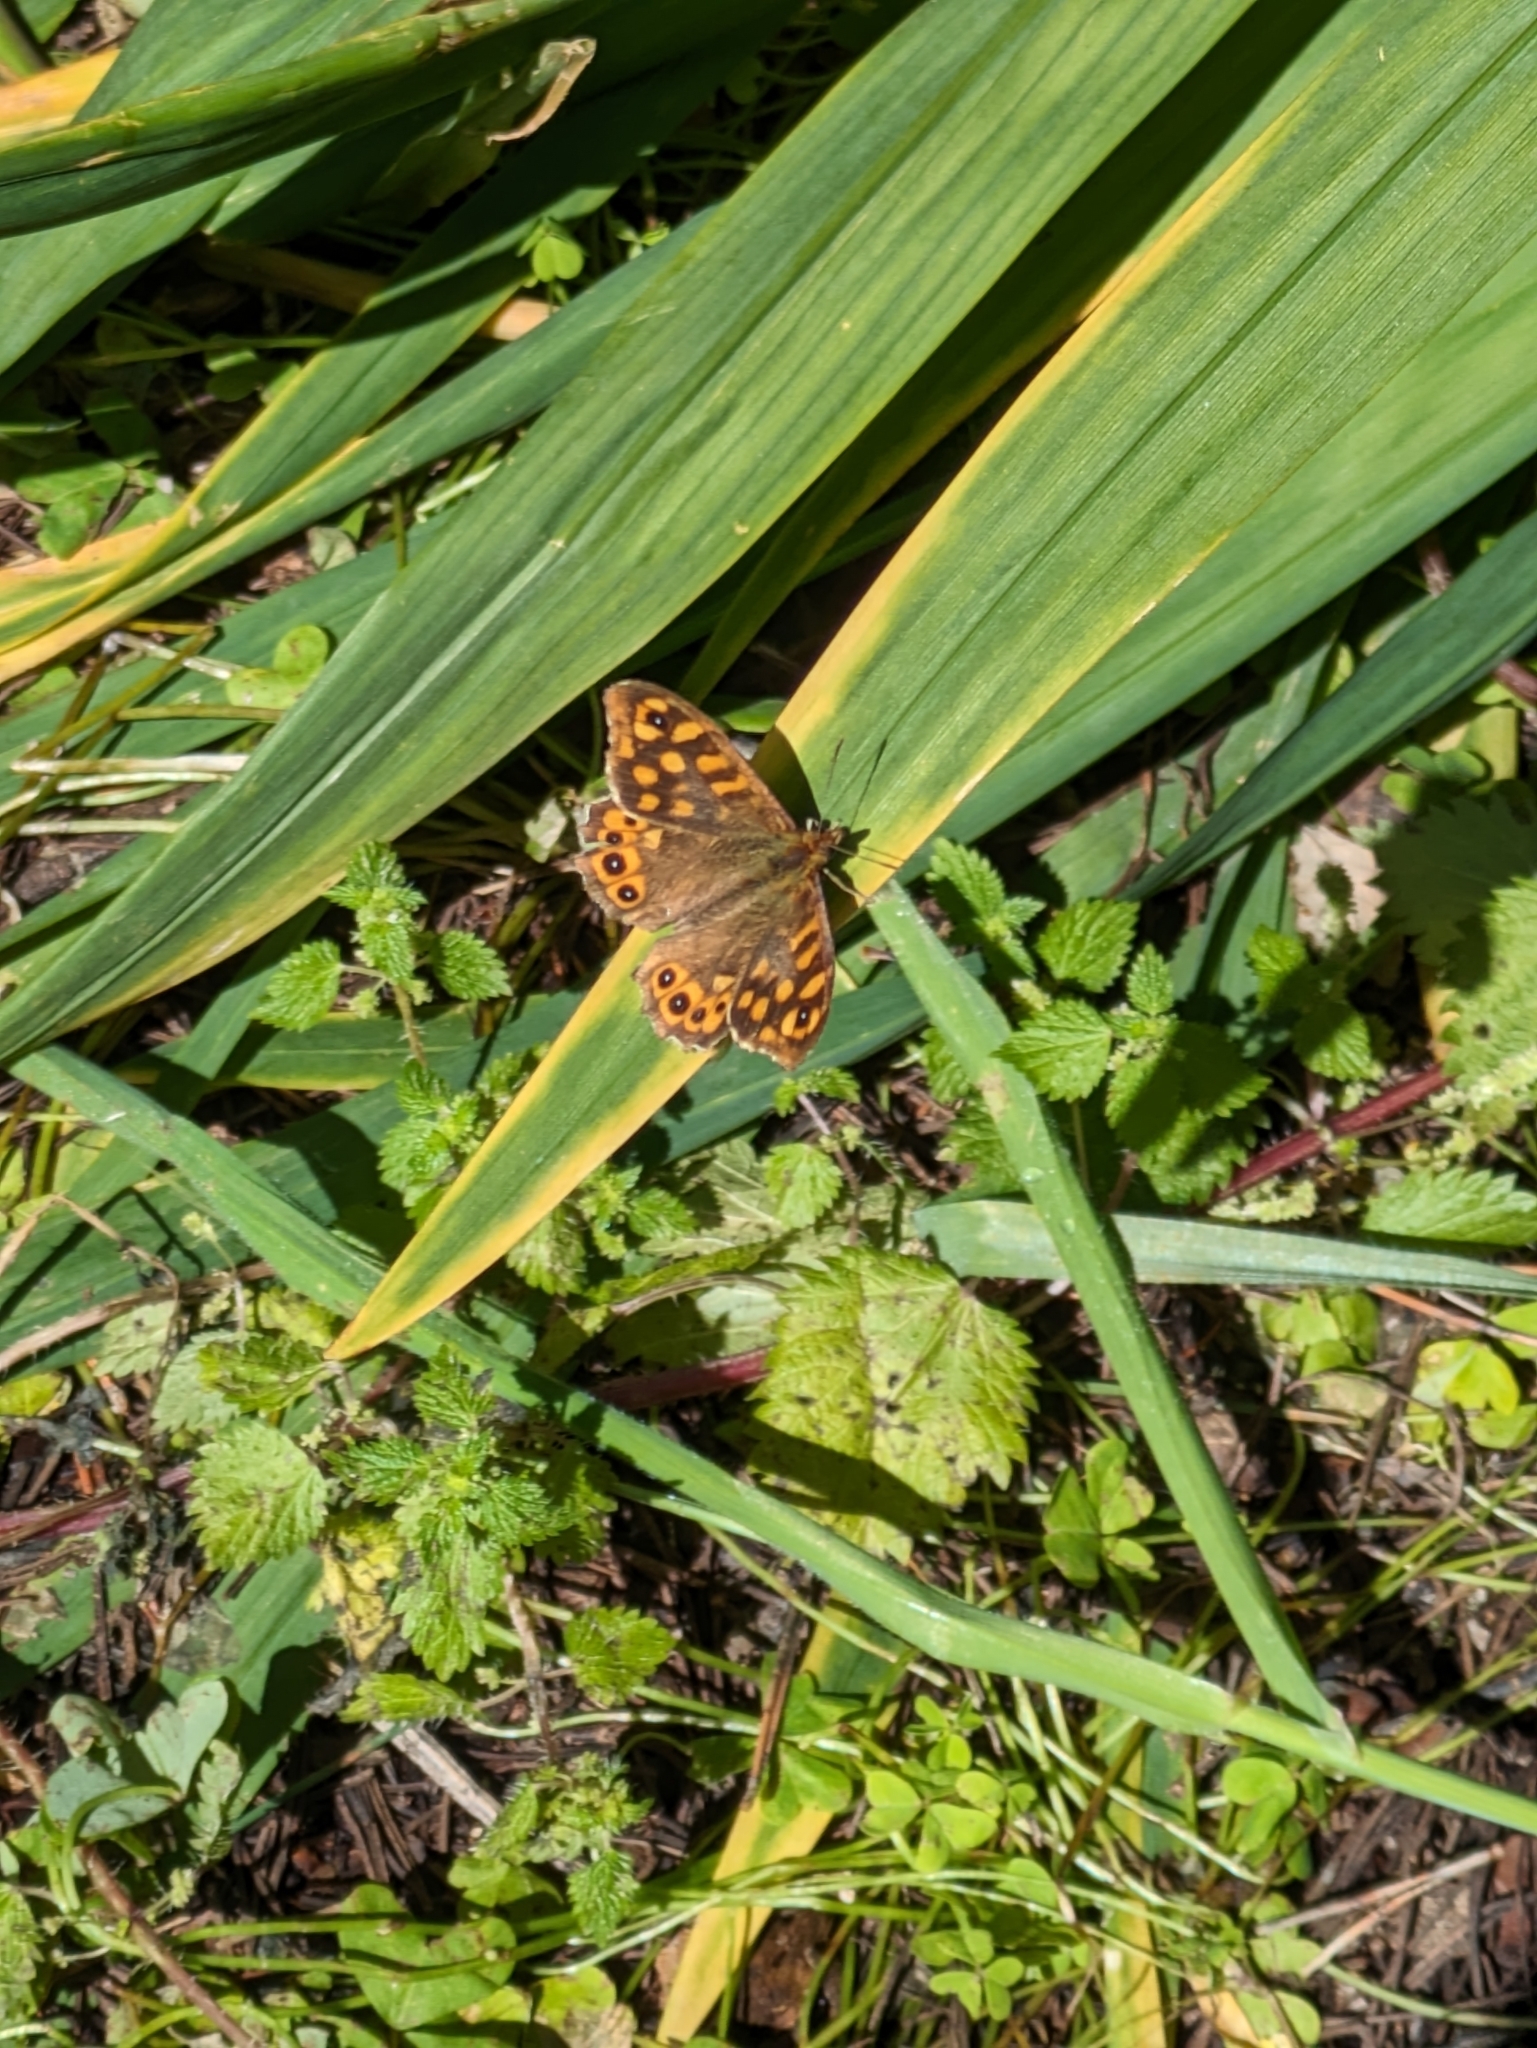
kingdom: Animalia
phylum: Arthropoda
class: Insecta
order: Lepidoptera
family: Nymphalidae
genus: Pararge
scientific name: Pararge aegeria
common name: Speckled wood
